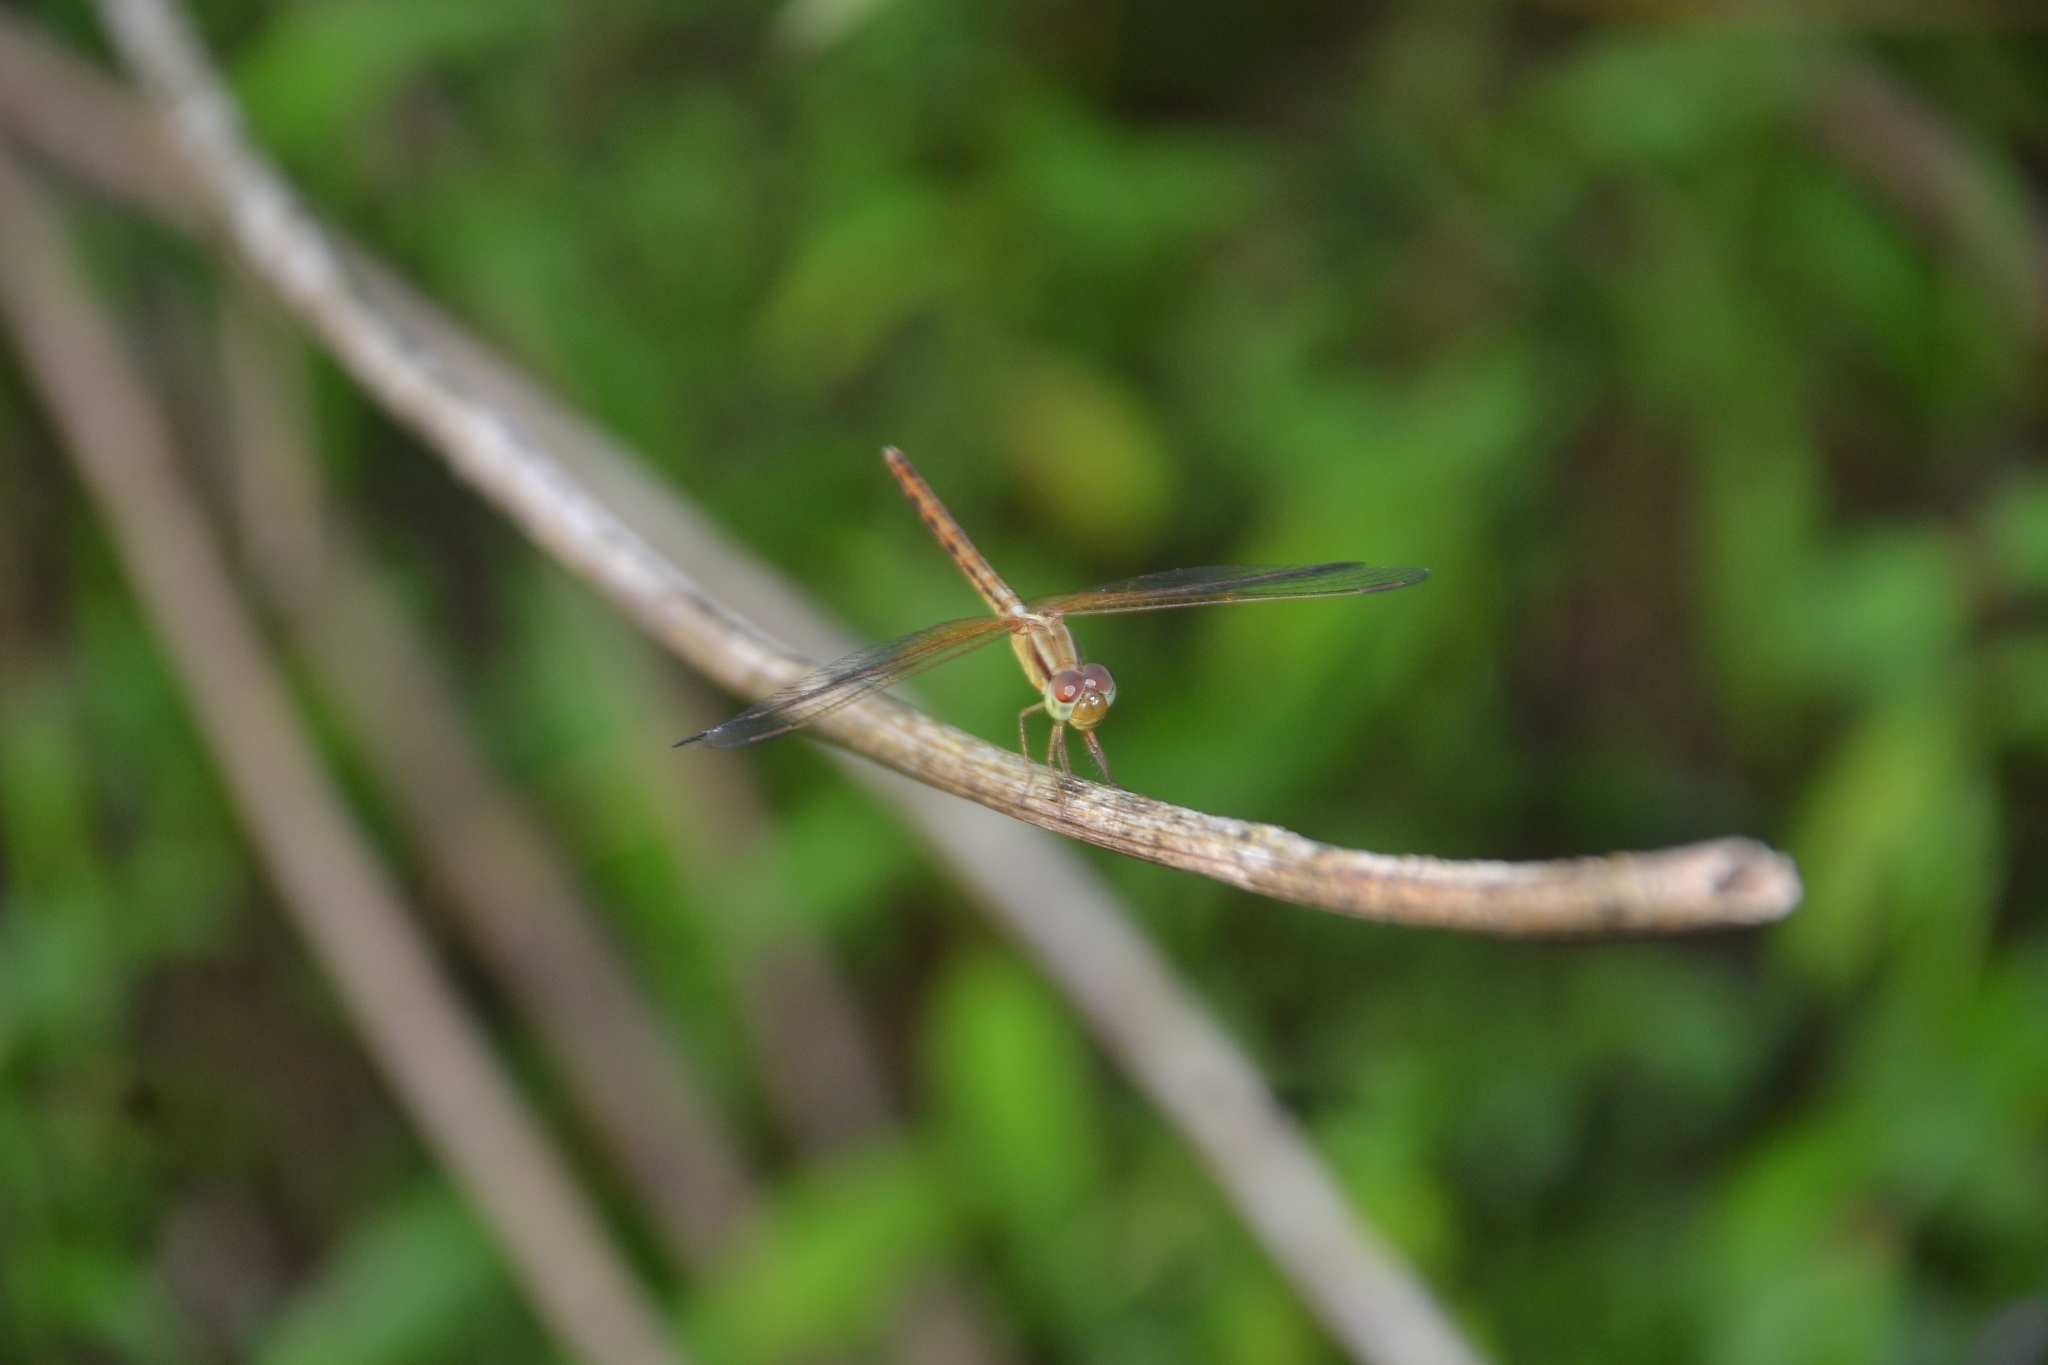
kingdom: Animalia
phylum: Arthropoda
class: Insecta
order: Odonata
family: Libellulidae
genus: Neurothemis
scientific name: Neurothemis intermedia
